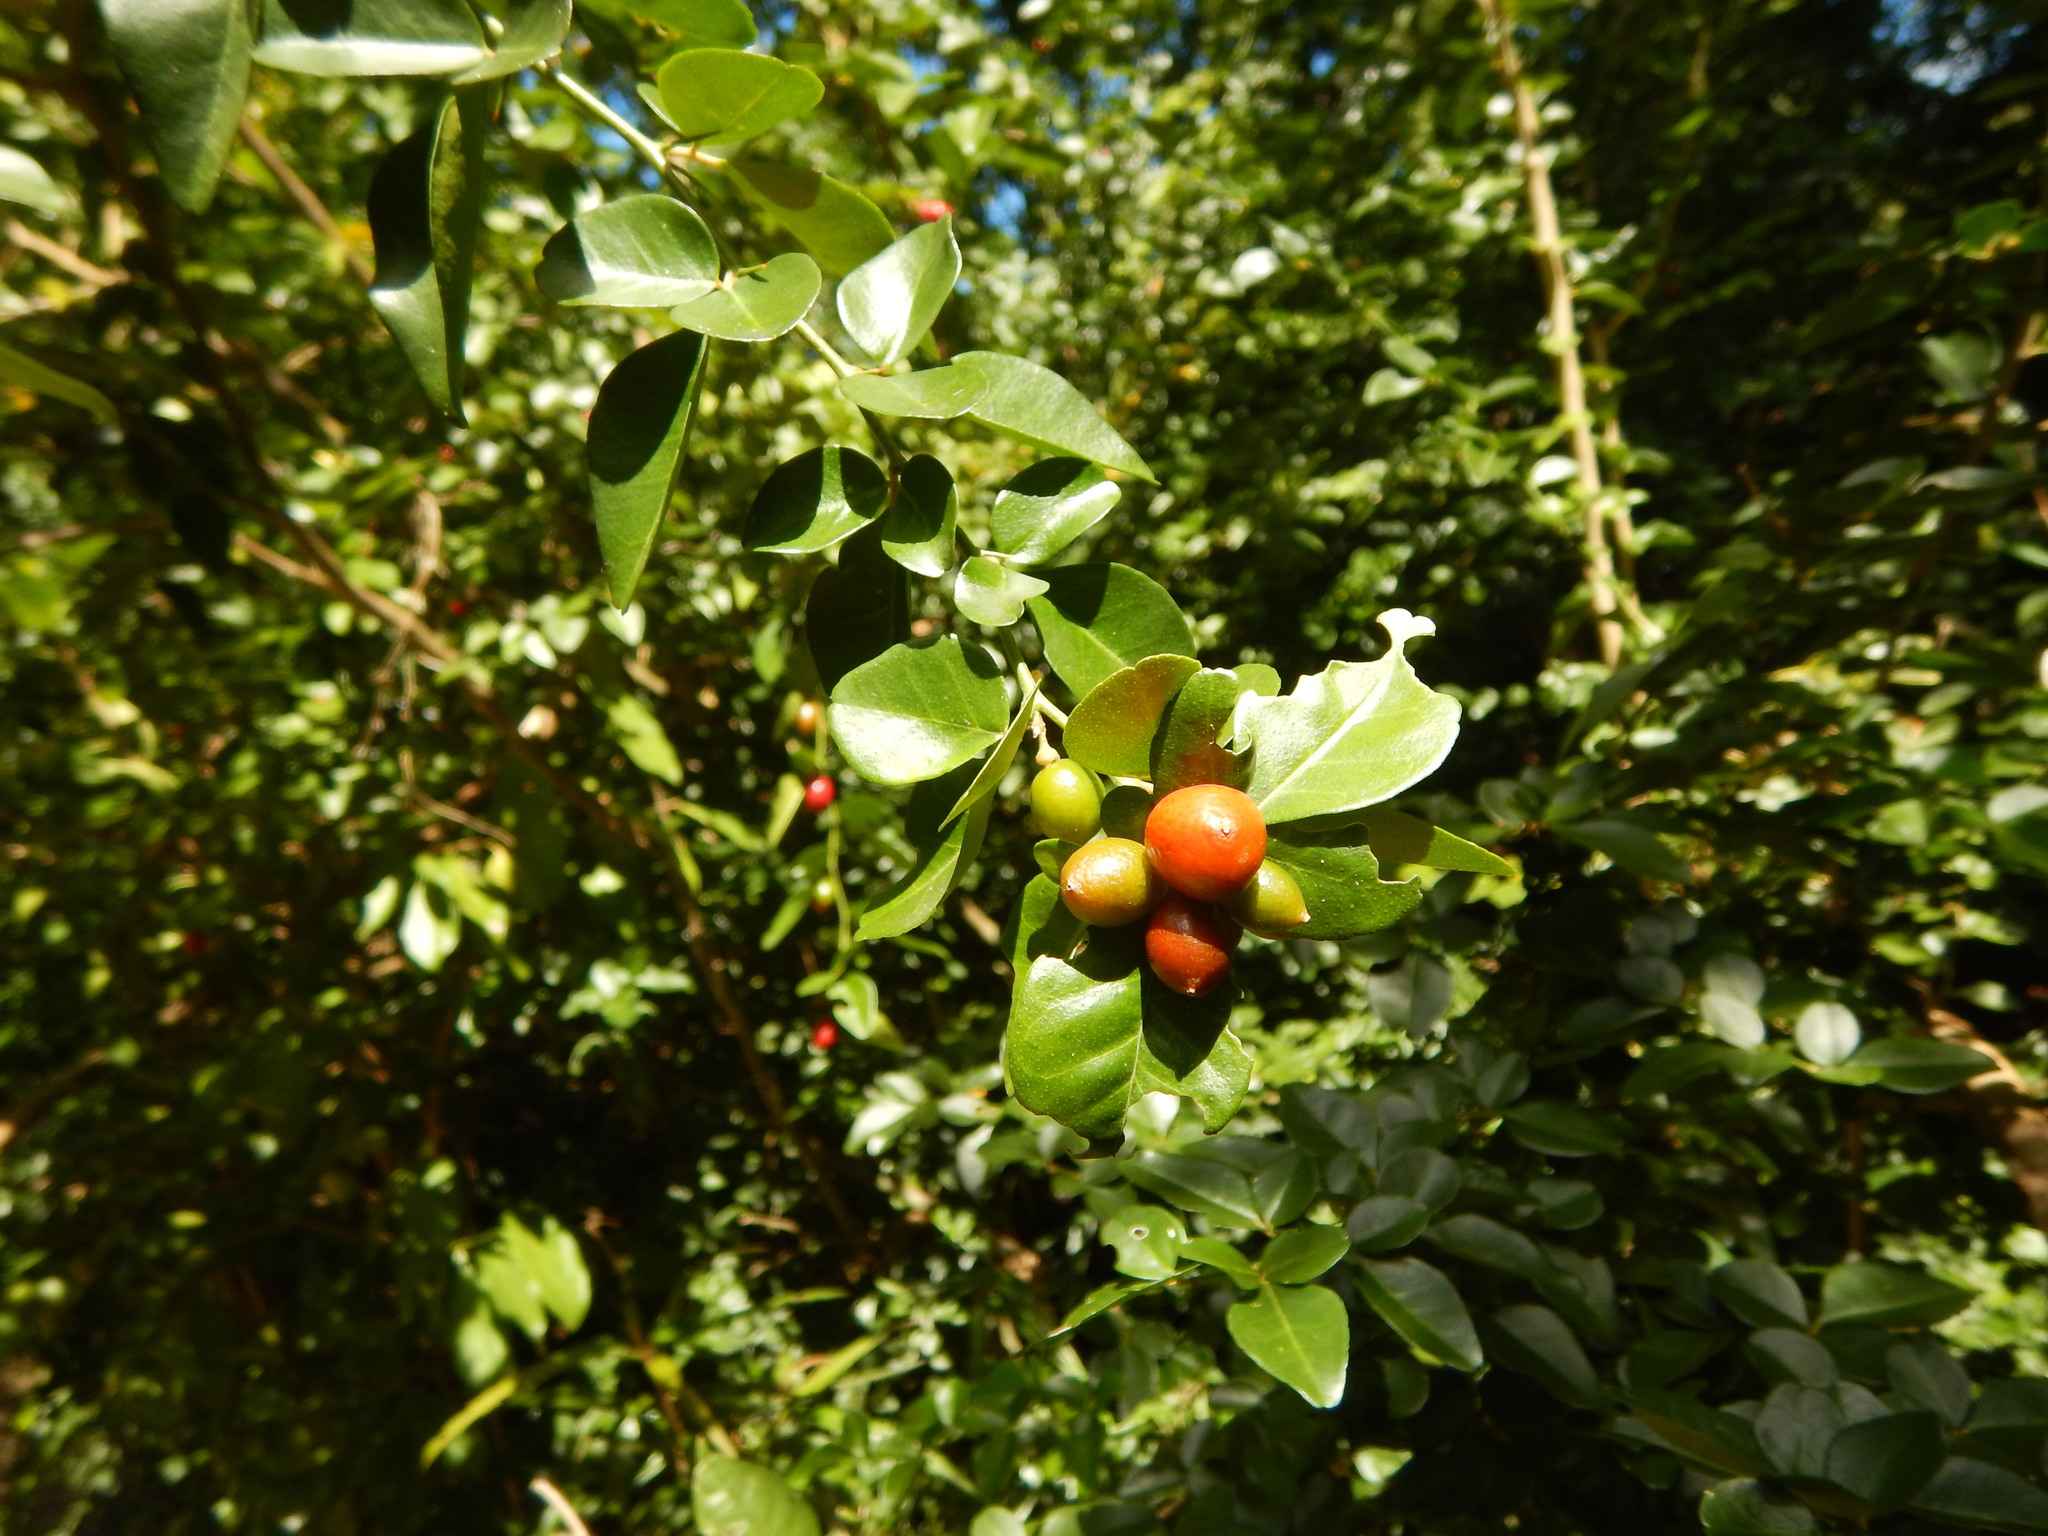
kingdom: Plantae
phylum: Tracheophyta
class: Magnoliopsida
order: Sapindales
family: Rutaceae
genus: Triphasia
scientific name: Triphasia trifolia
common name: Limeberry
